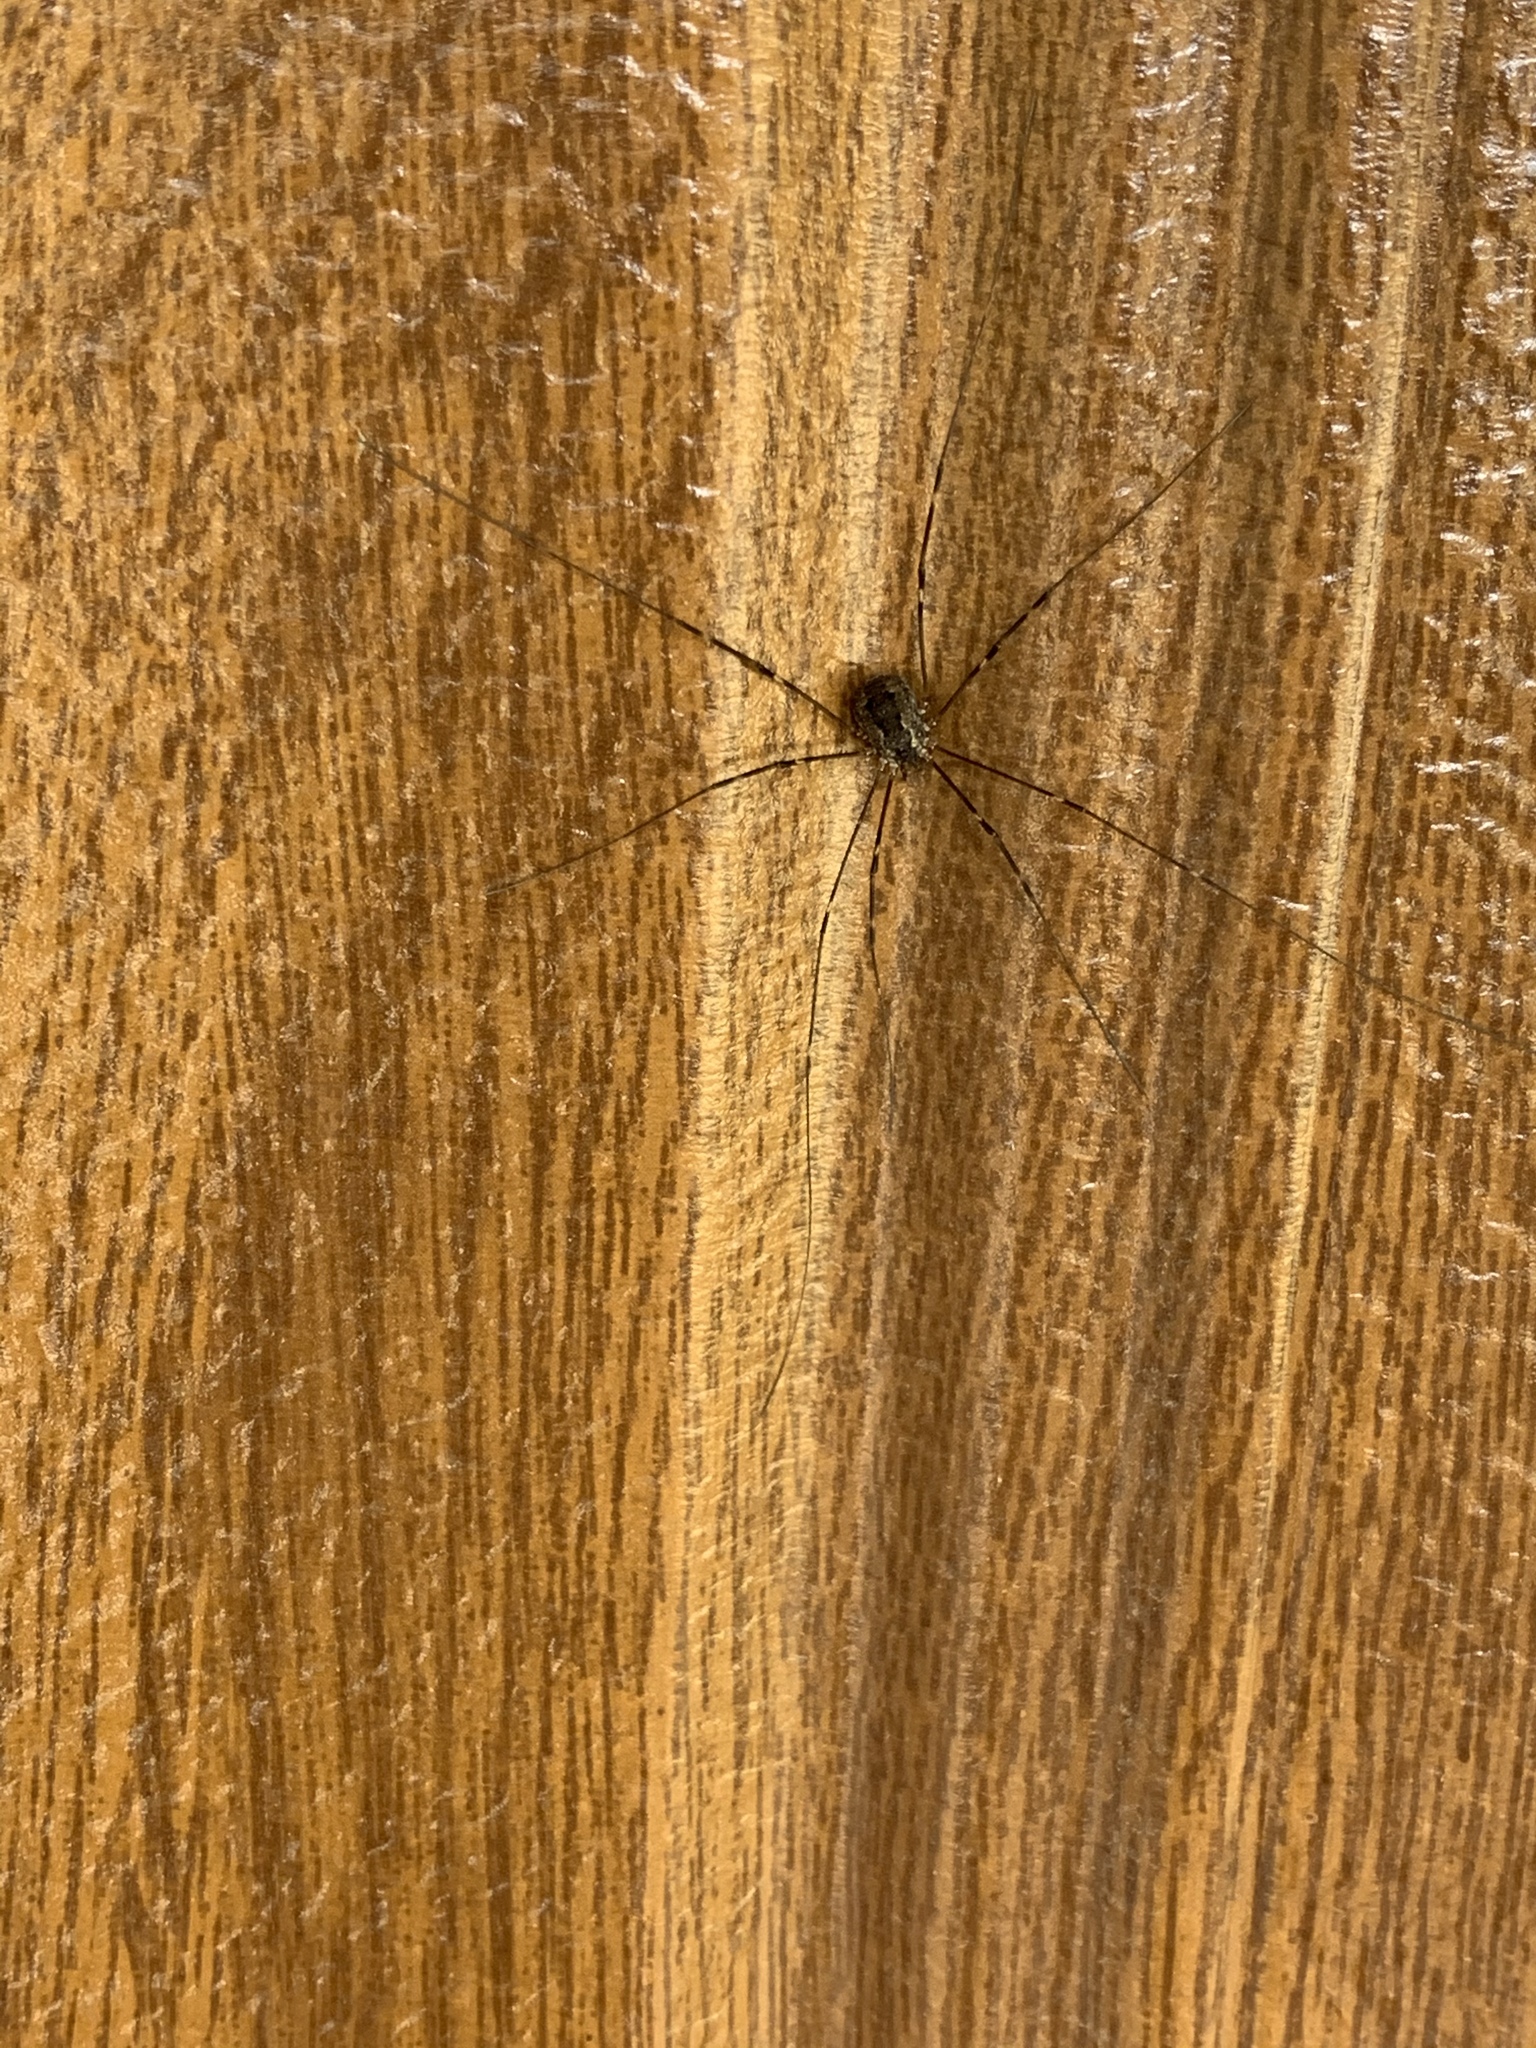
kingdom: Animalia
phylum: Arthropoda
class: Arachnida
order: Opiliones
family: Sclerosomatidae
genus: Leiobunum
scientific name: Leiobunum townsendi
